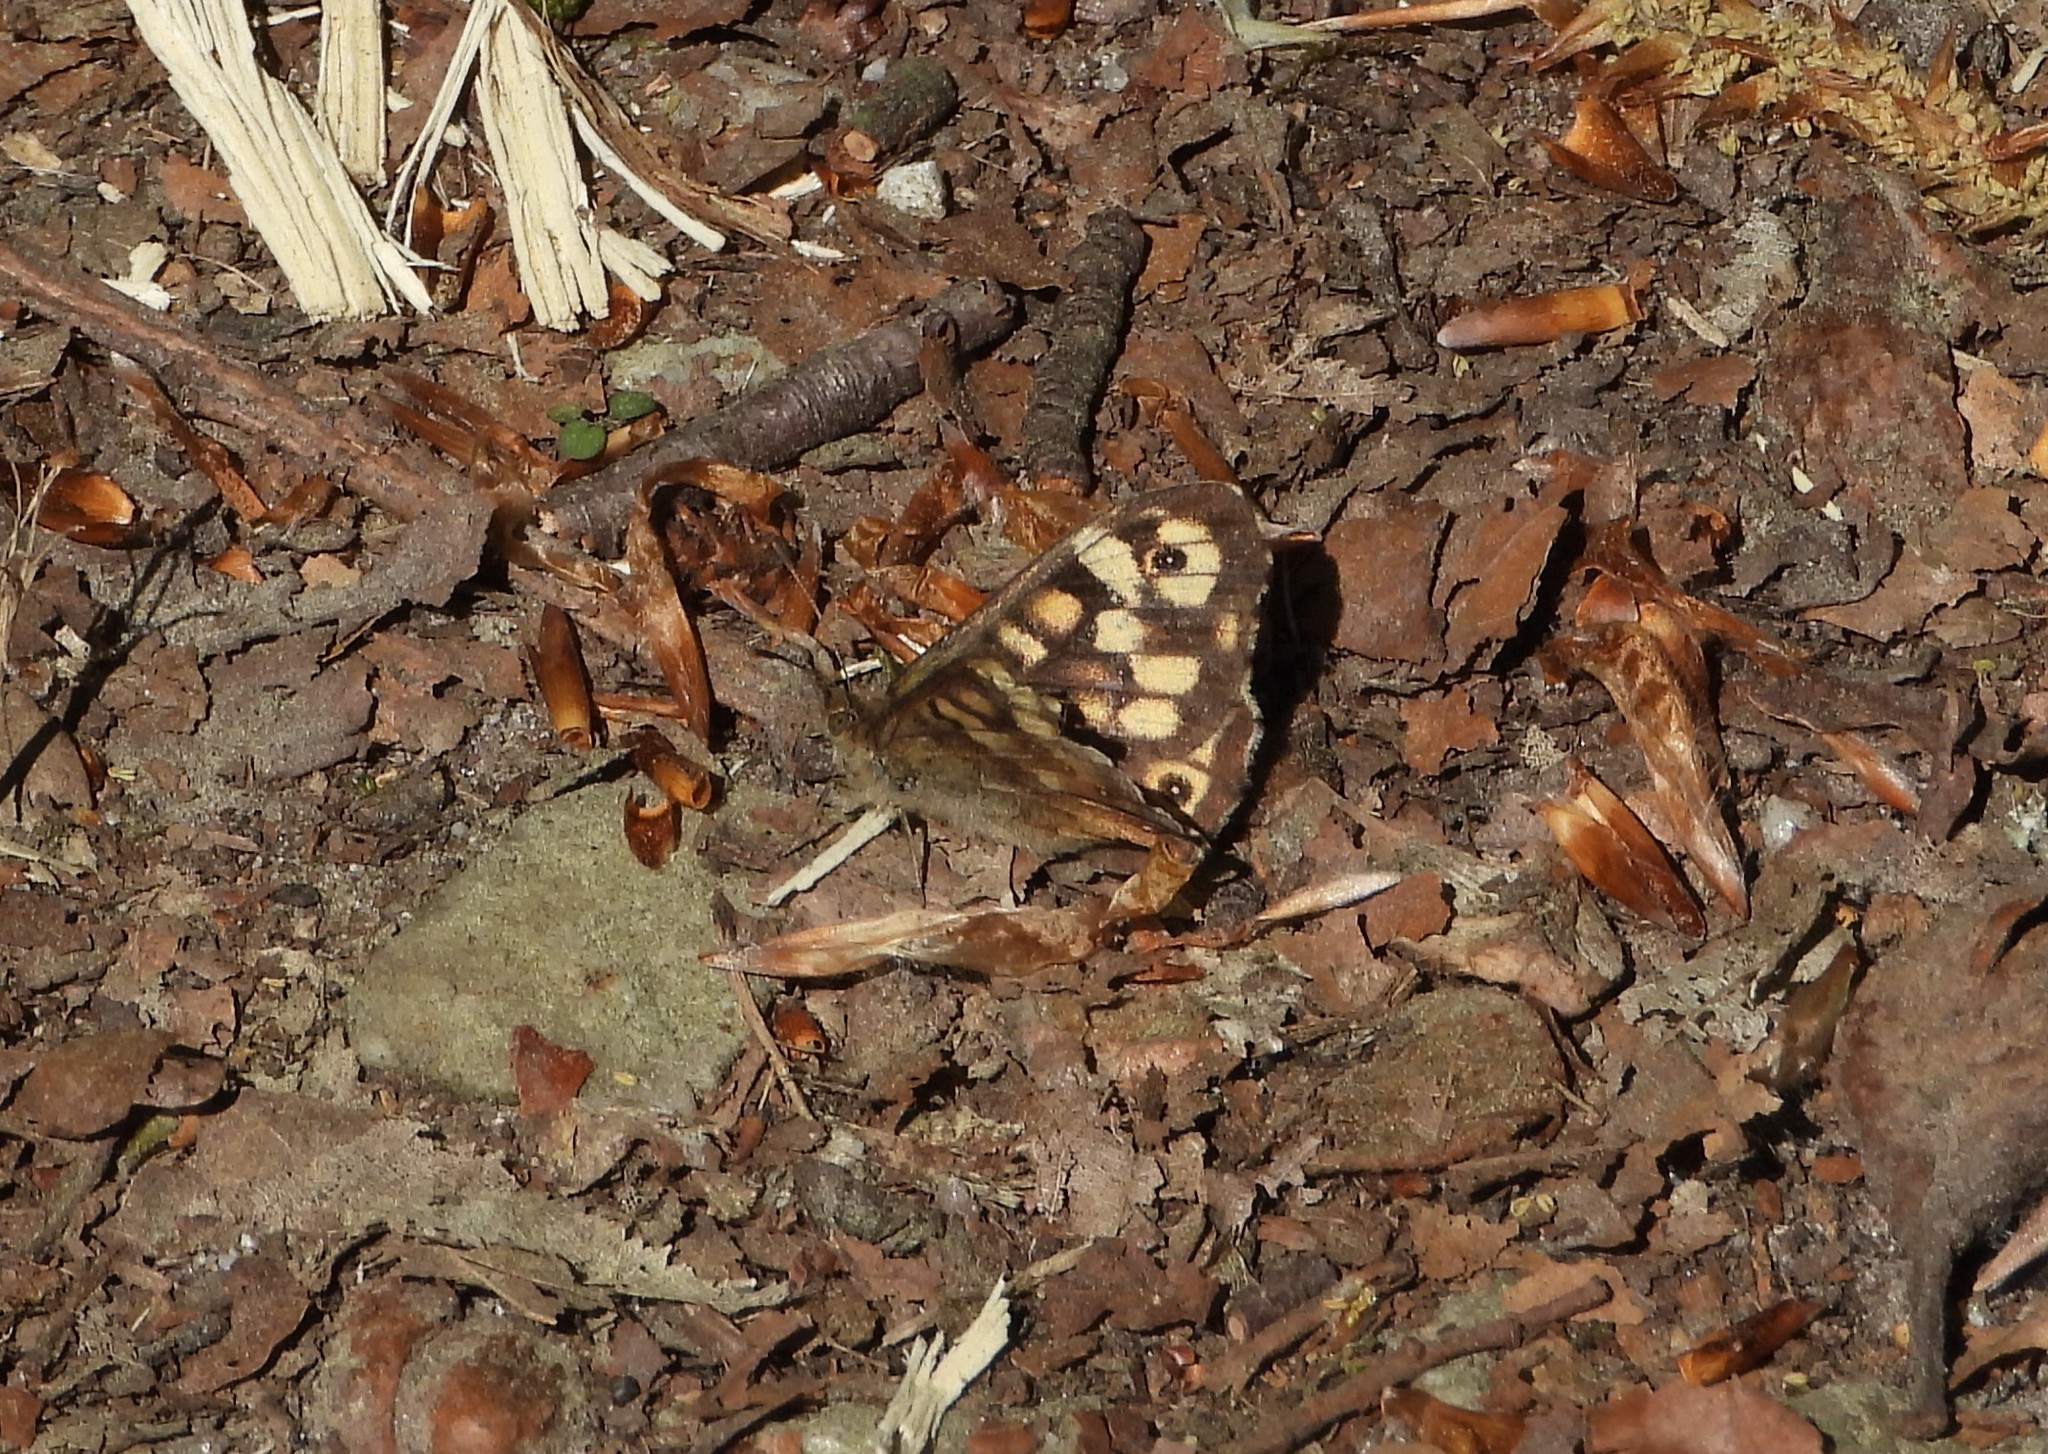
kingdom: Animalia
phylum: Arthropoda
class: Insecta
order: Lepidoptera
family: Nymphalidae
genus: Pararge
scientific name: Pararge aegeria
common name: Speckled wood
